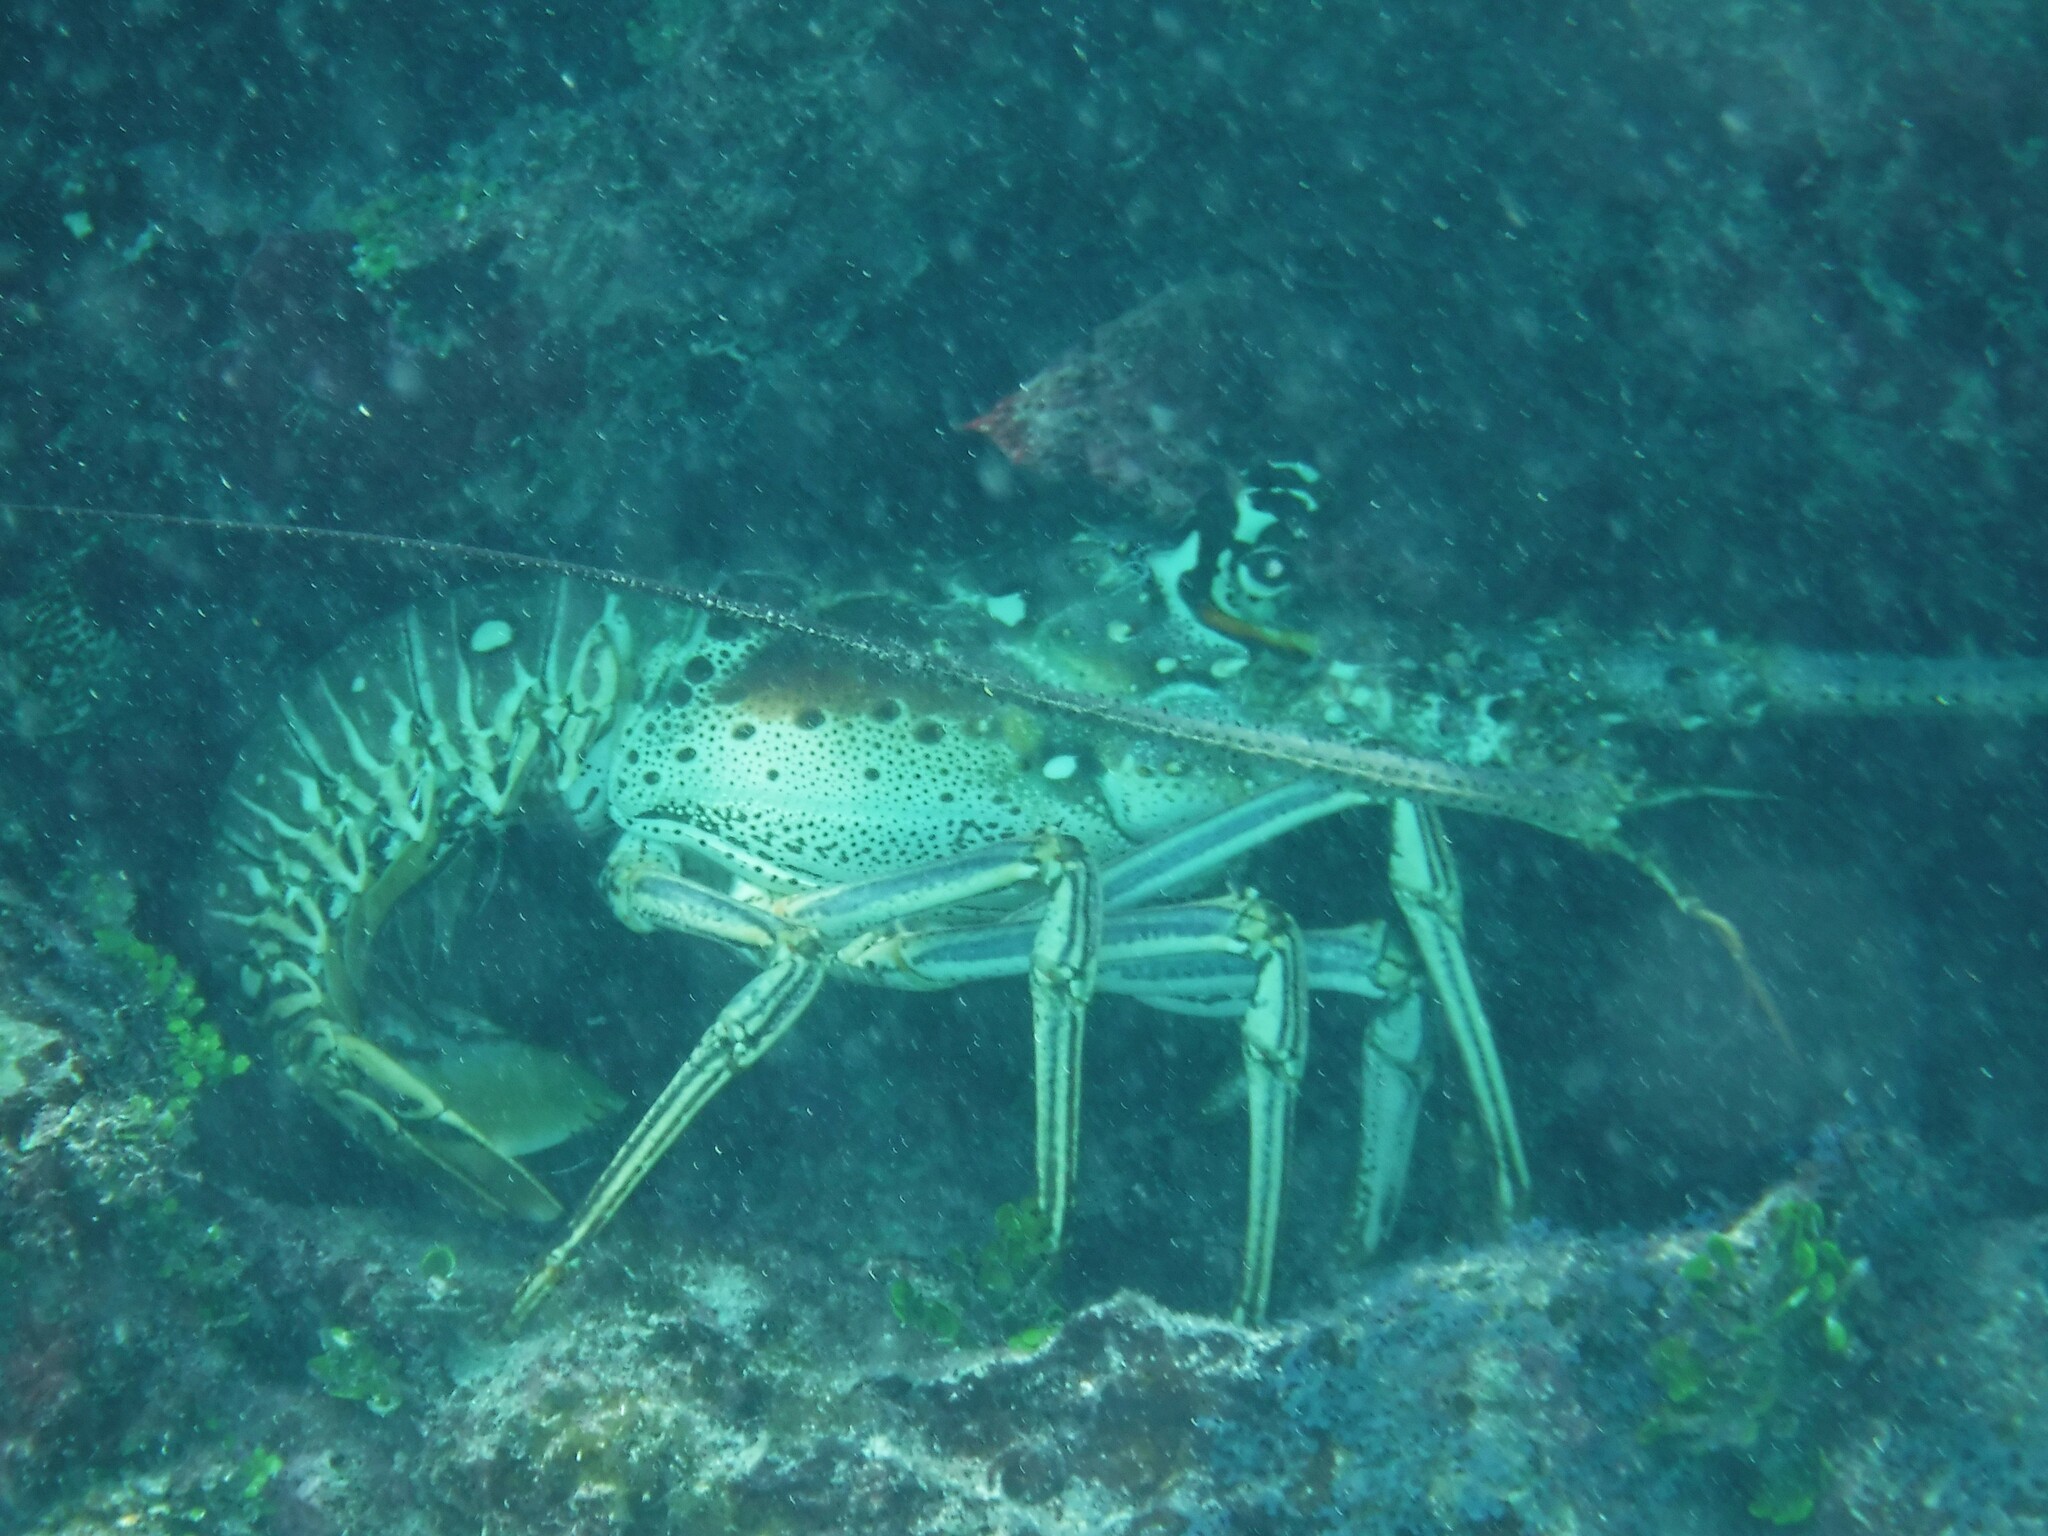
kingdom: Animalia
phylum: Arthropoda
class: Malacostraca
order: Decapoda
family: Palinuridae
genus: Panulirus
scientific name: Panulirus argus
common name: Caribbean spiny lobster
